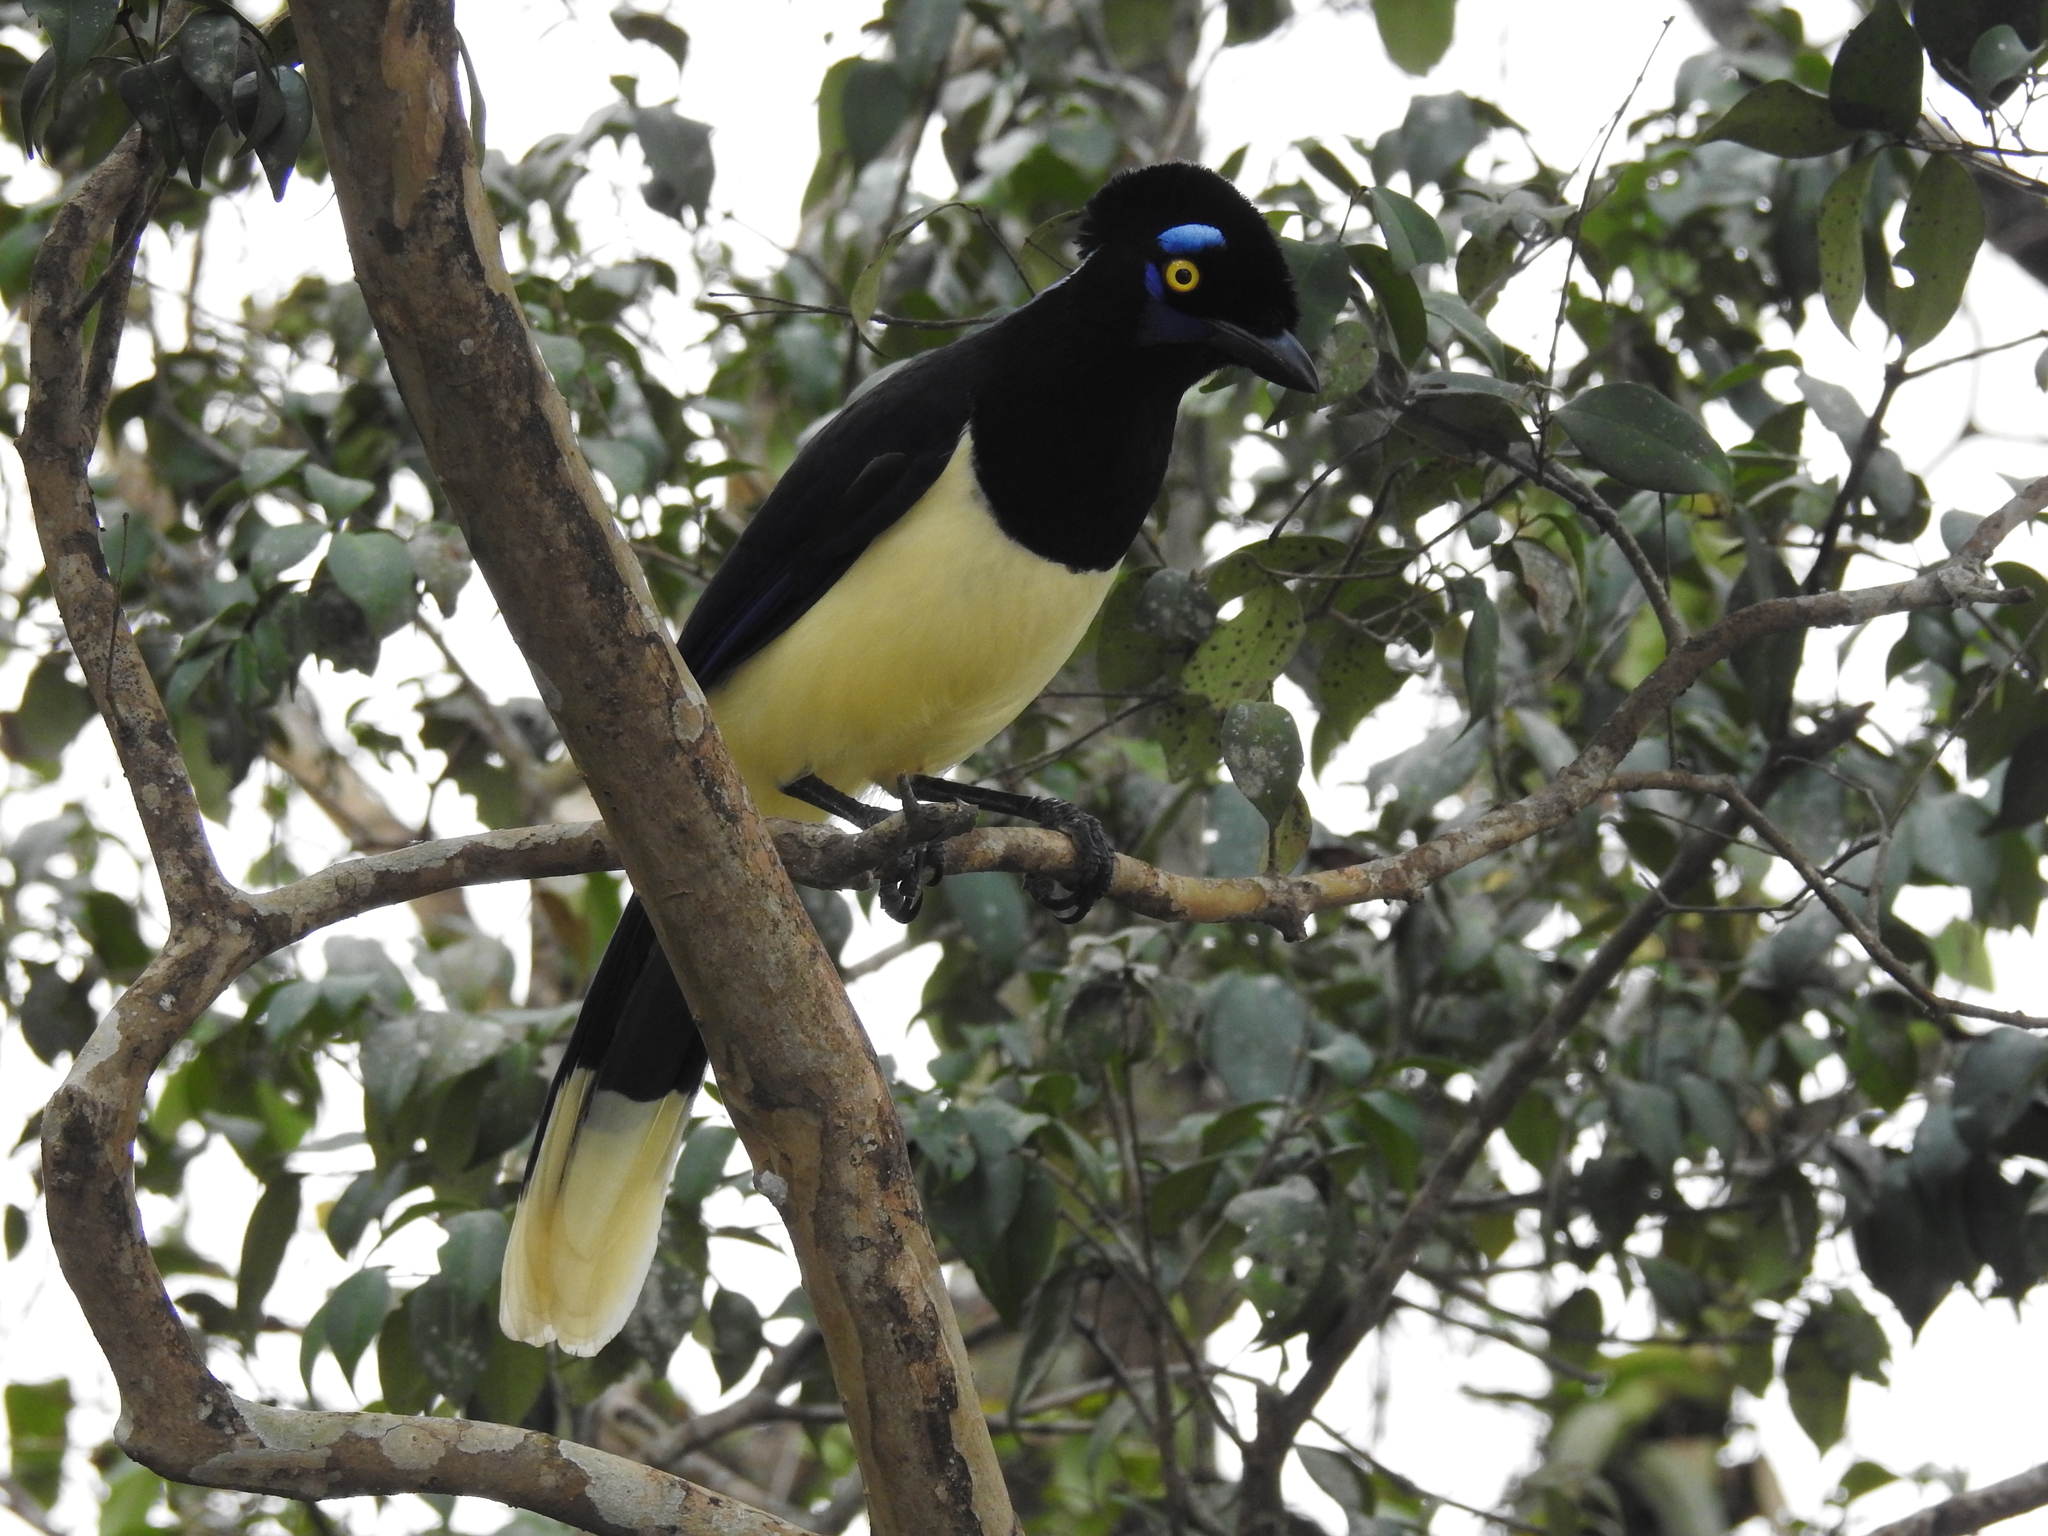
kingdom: Animalia
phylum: Chordata
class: Aves
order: Passeriformes
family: Corvidae
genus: Cyanocorax
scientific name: Cyanocorax chrysops
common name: Plush-crested jay
